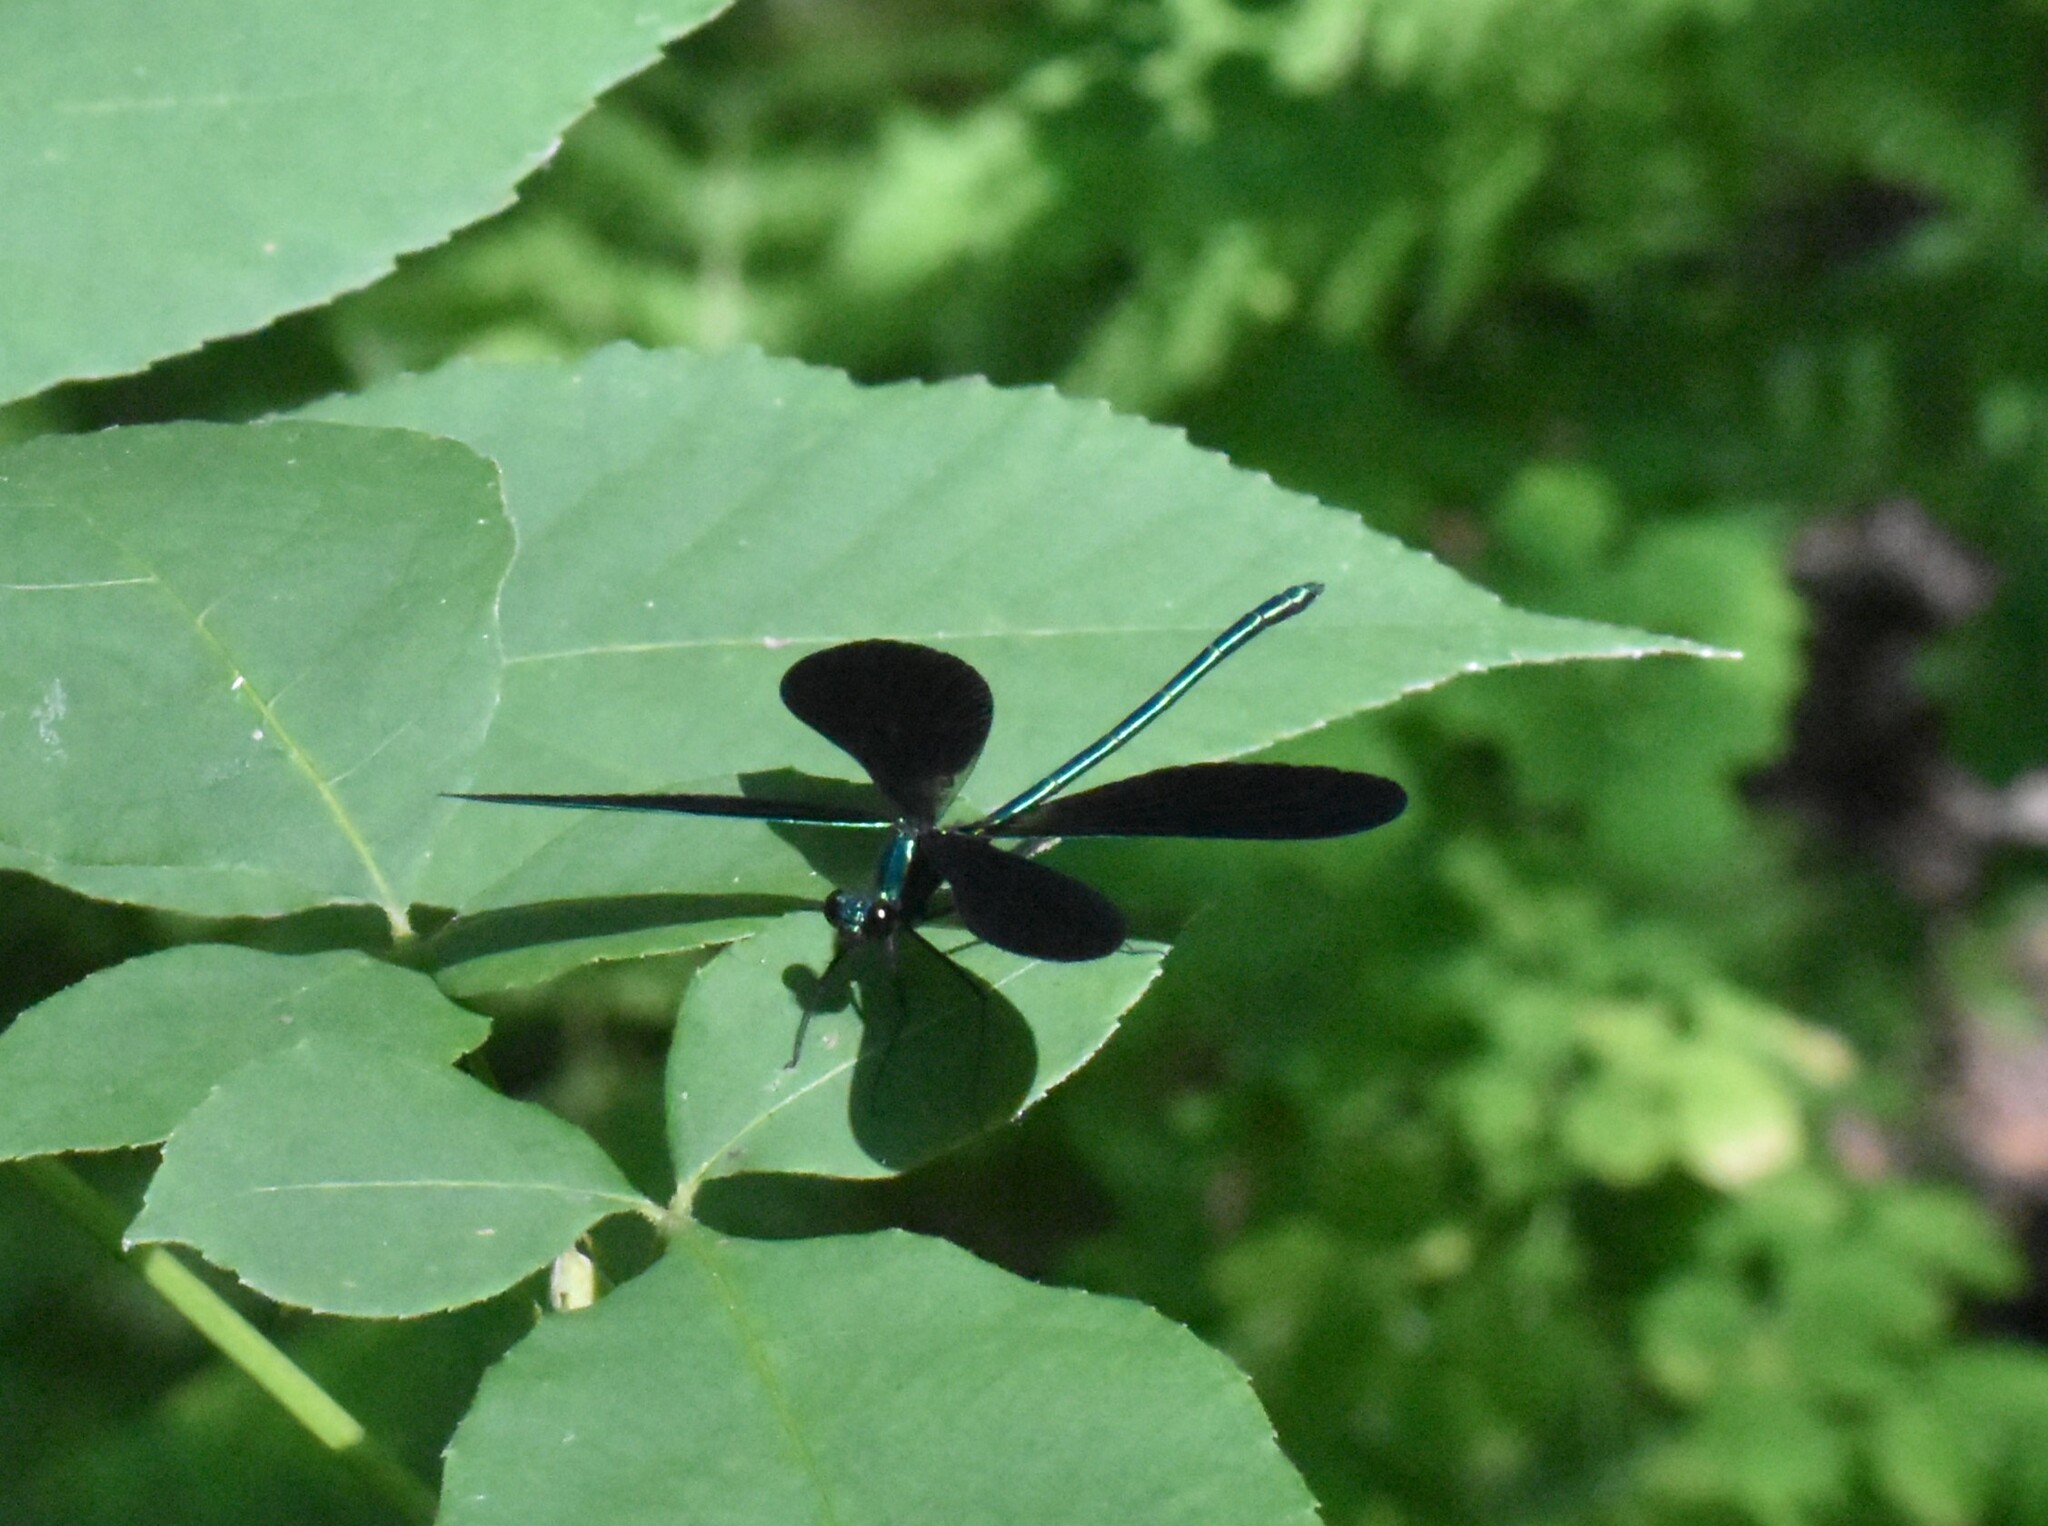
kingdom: Animalia
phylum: Arthropoda
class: Insecta
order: Odonata
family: Calopterygidae
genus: Calopteryx
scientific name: Calopteryx maculata
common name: Ebony jewelwing
